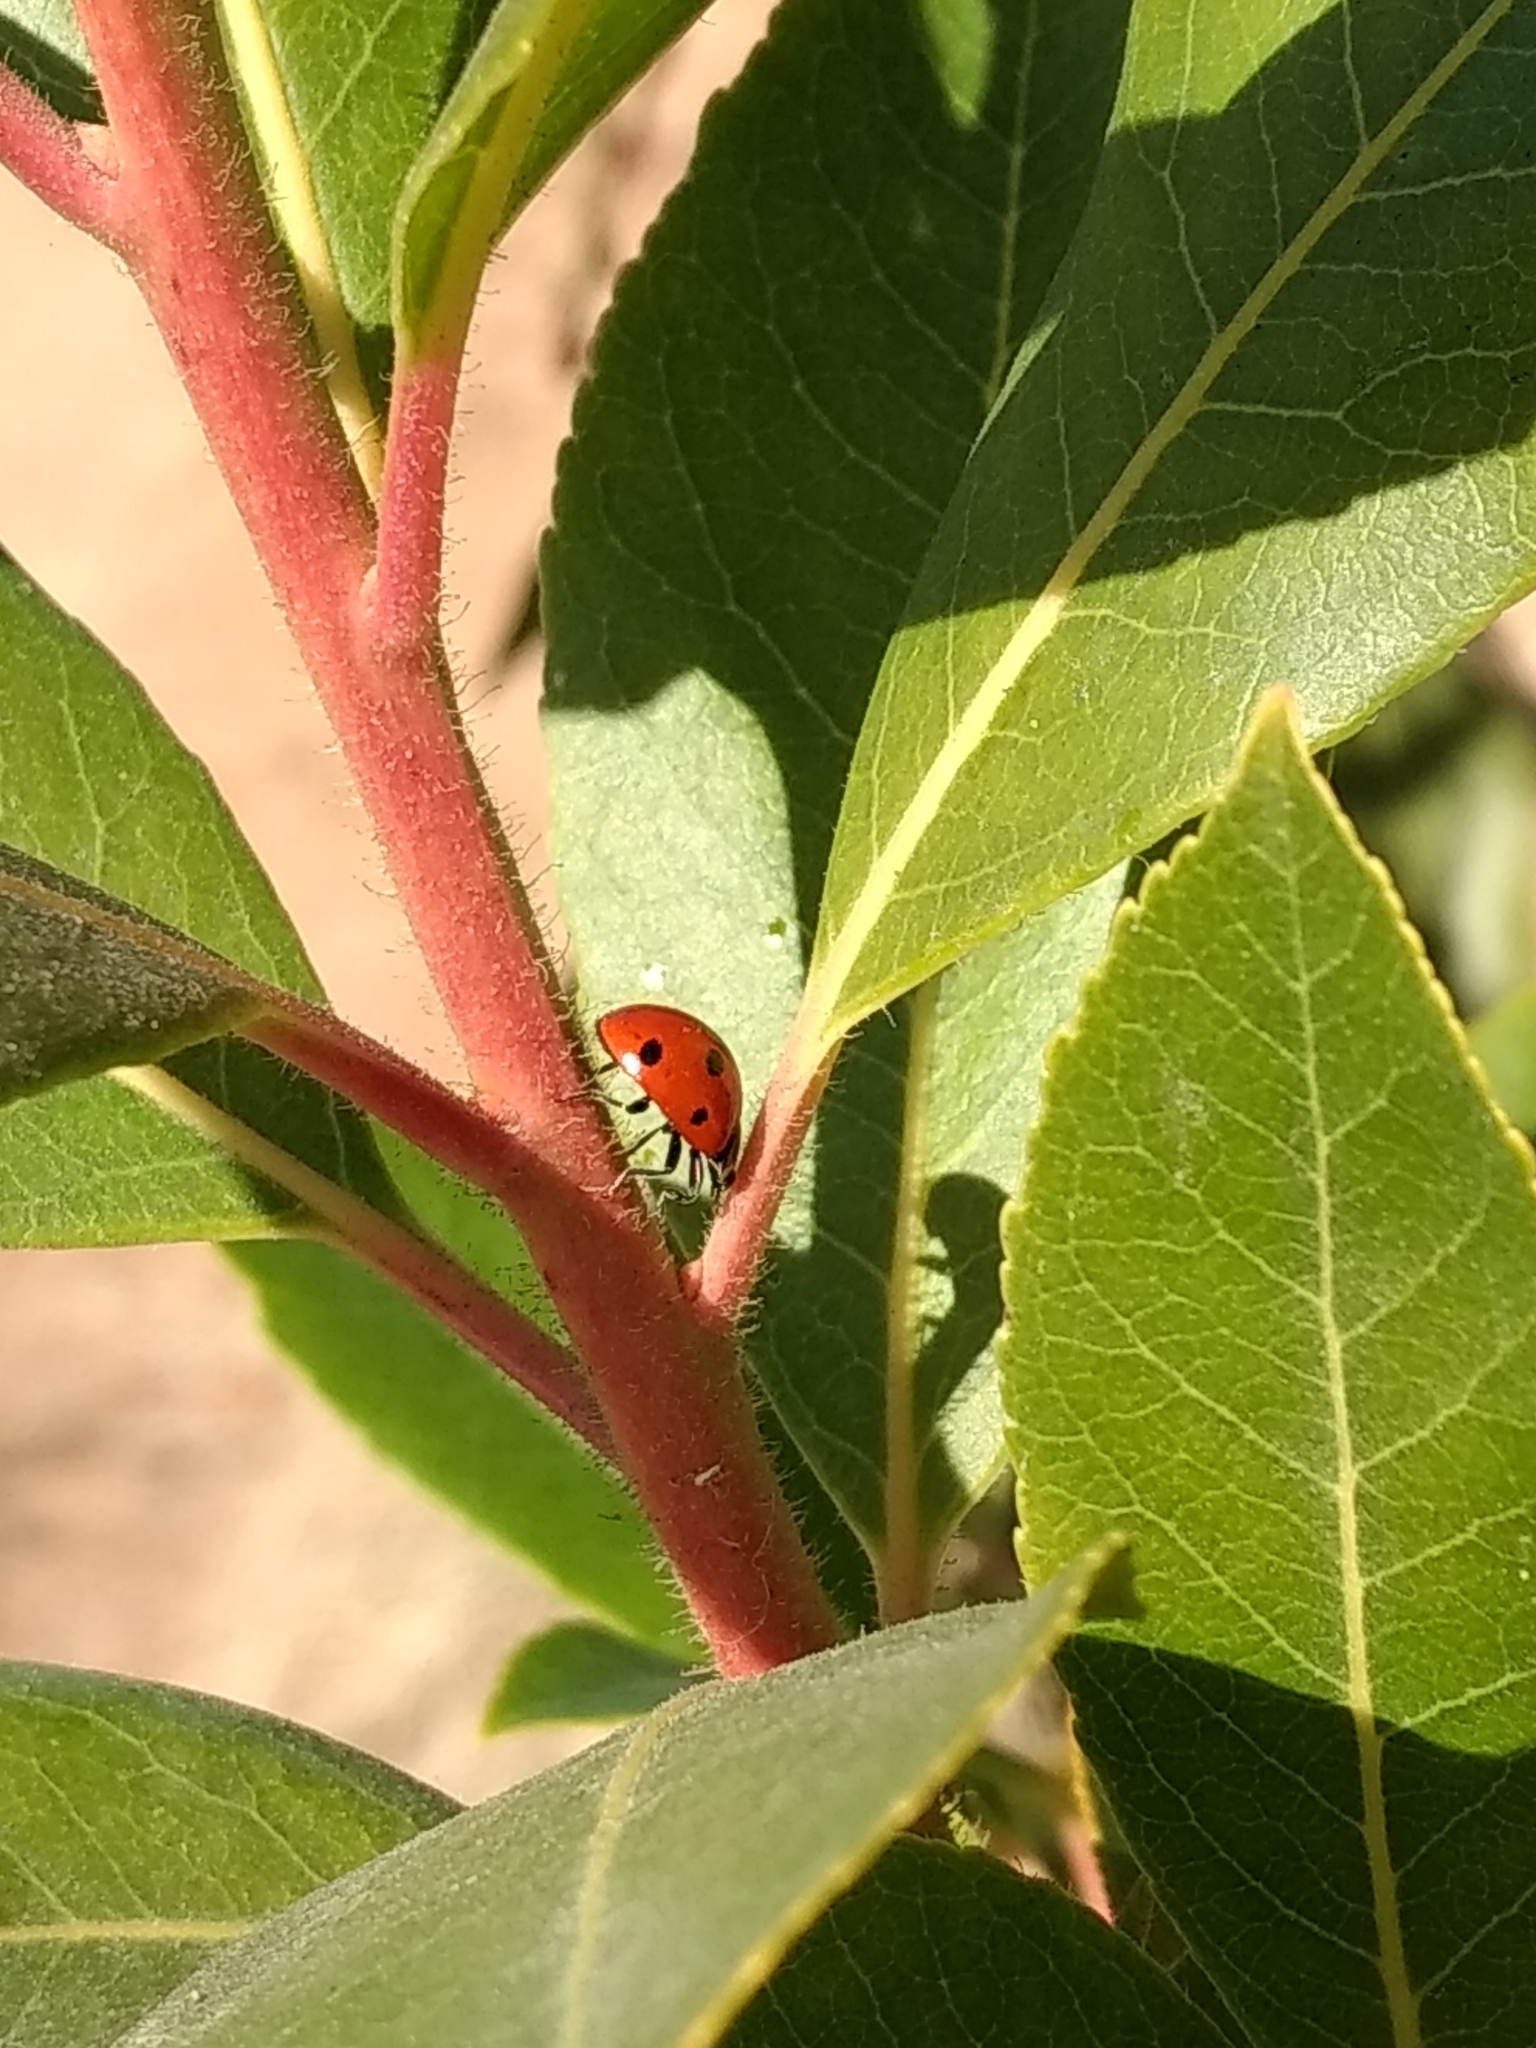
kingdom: Animalia
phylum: Arthropoda
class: Insecta
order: Coleoptera
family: Coccinellidae
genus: Coccinella
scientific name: Coccinella septempunctata
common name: Sevenspotted lady beetle
